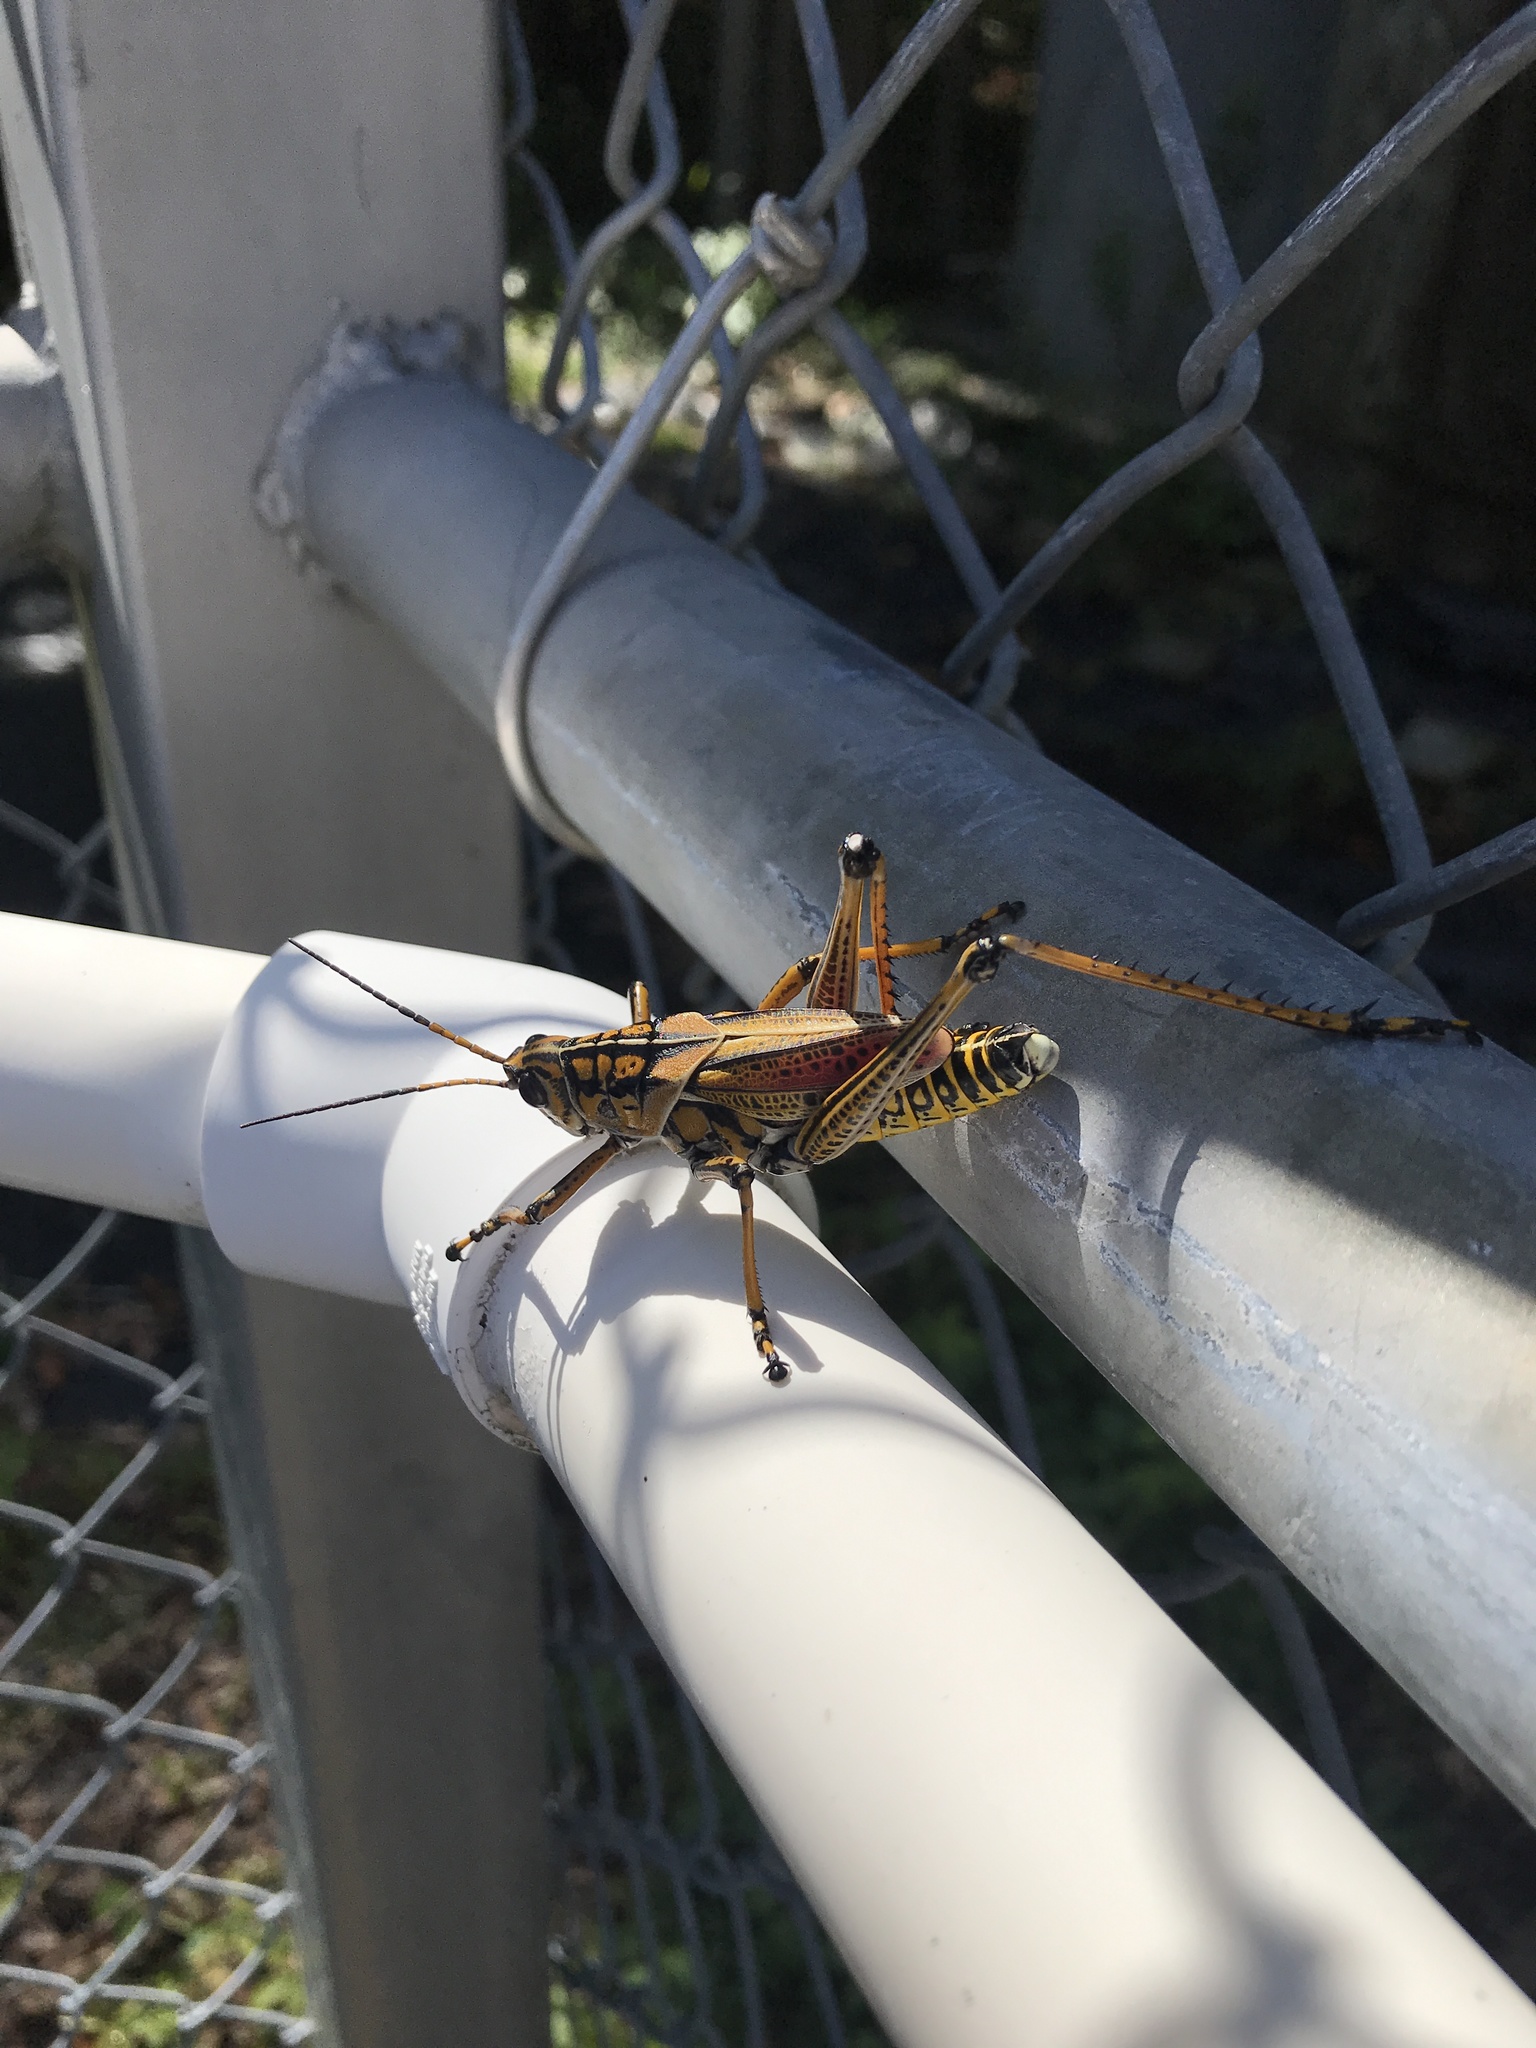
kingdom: Animalia
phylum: Arthropoda
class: Insecta
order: Orthoptera
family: Romaleidae
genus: Romalea
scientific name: Romalea microptera
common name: Eastern lubber grasshopper
